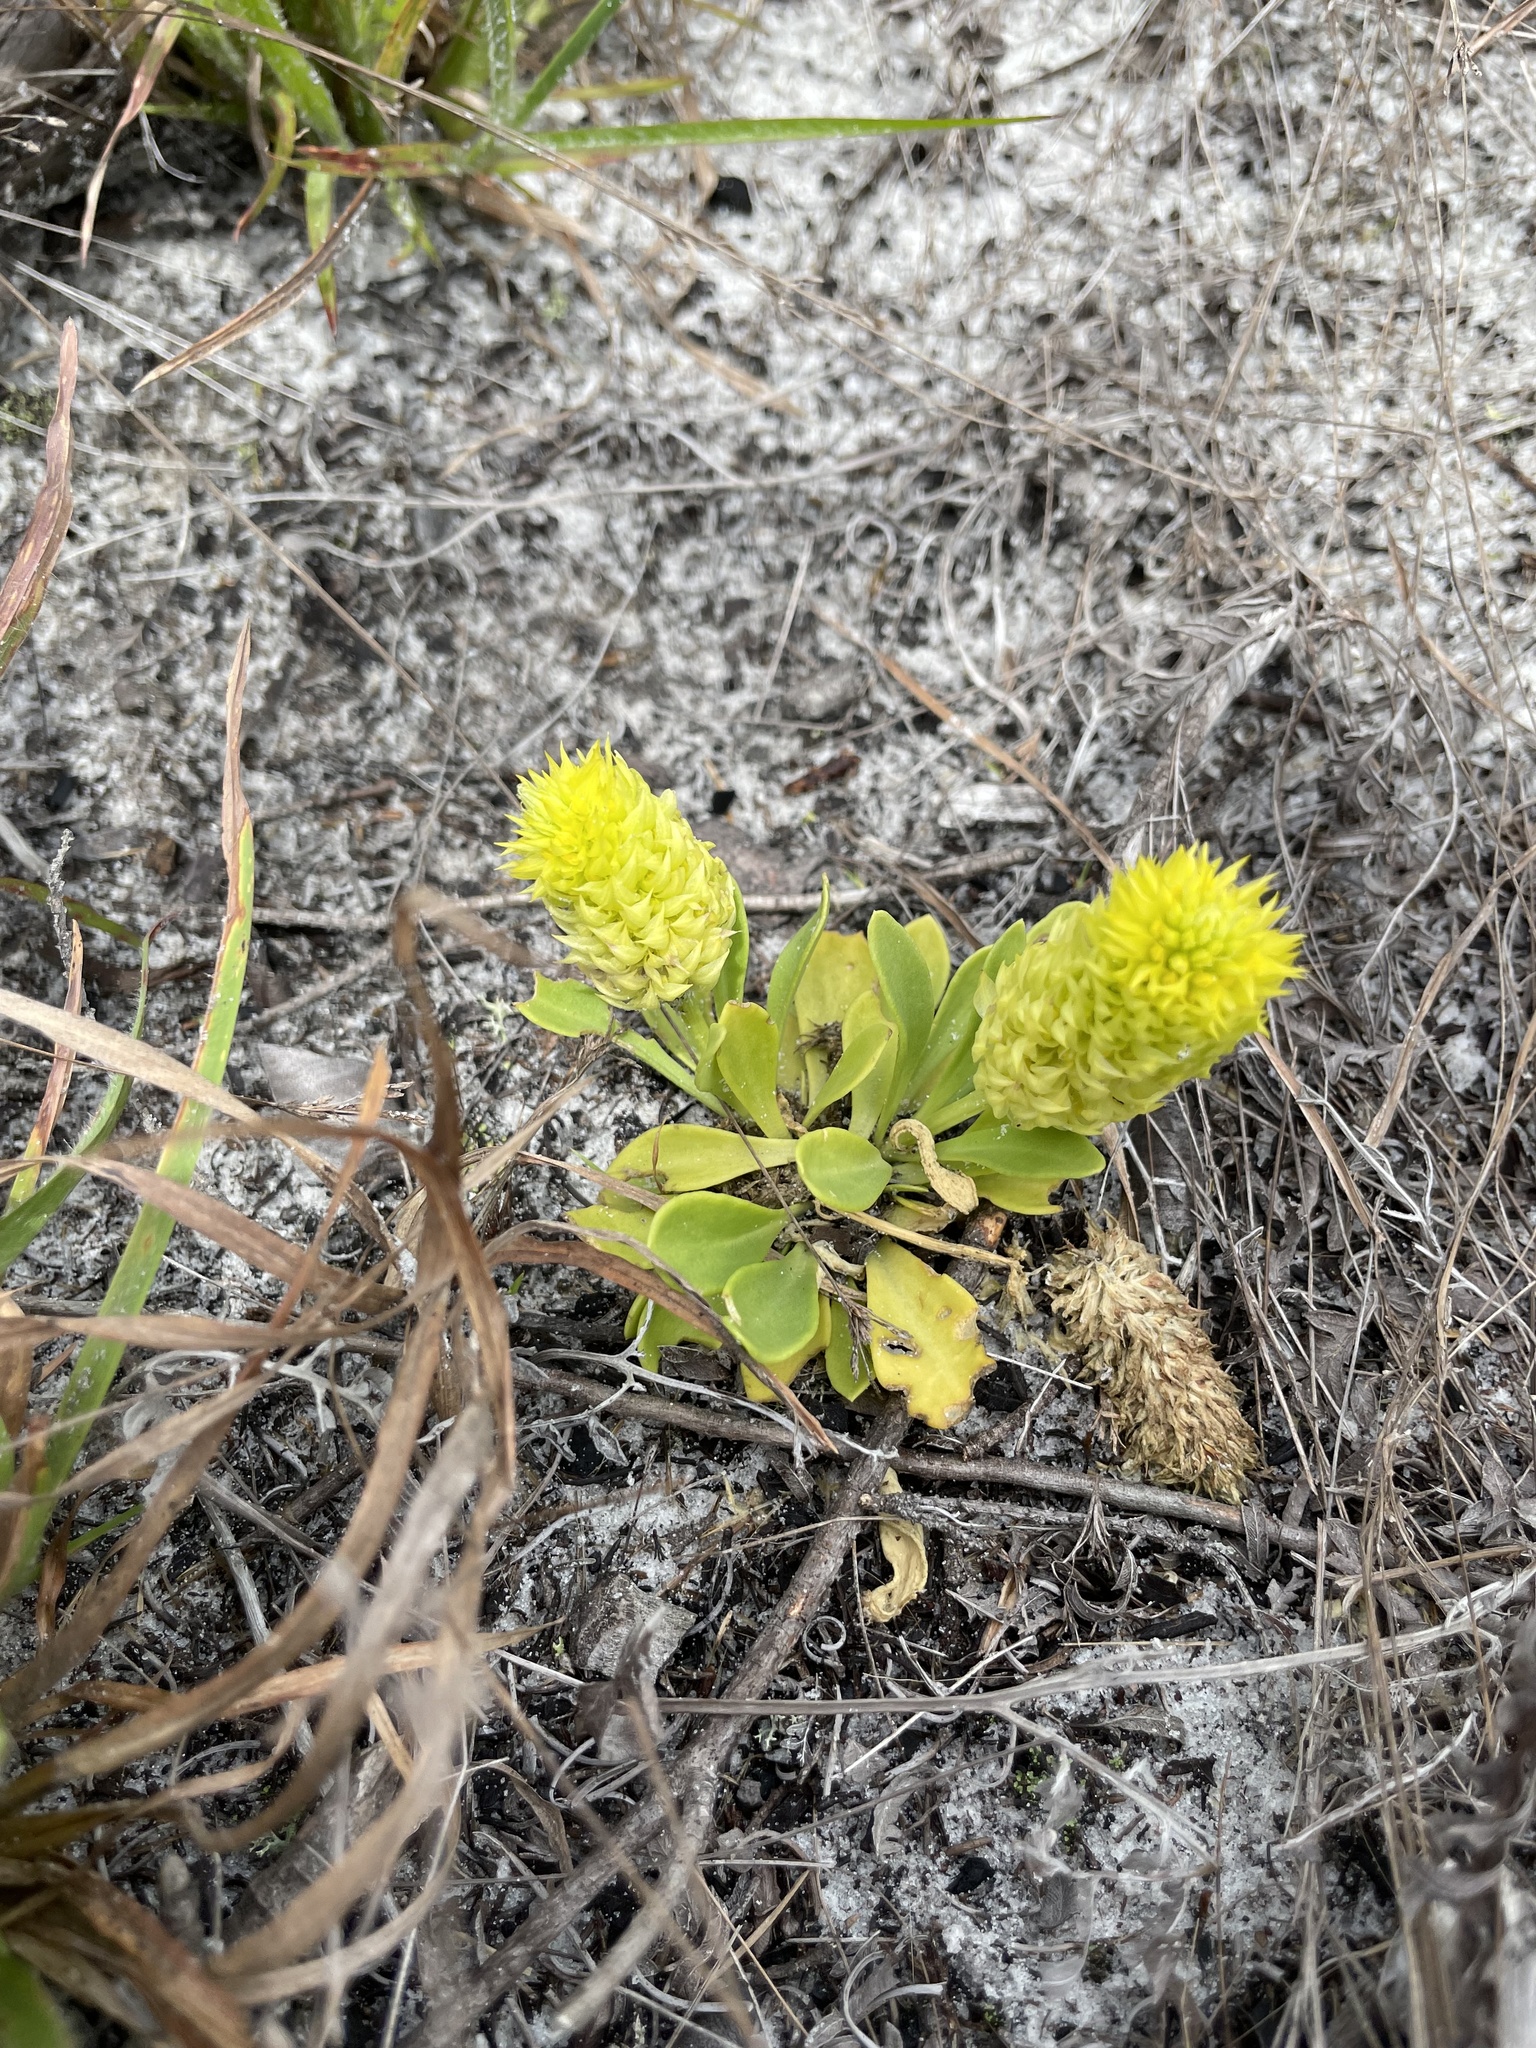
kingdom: Plantae
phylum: Tracheophyta
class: Magnoliopsida
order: Fabales
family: Polygalaceae
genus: Polygala
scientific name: Polygala nana
